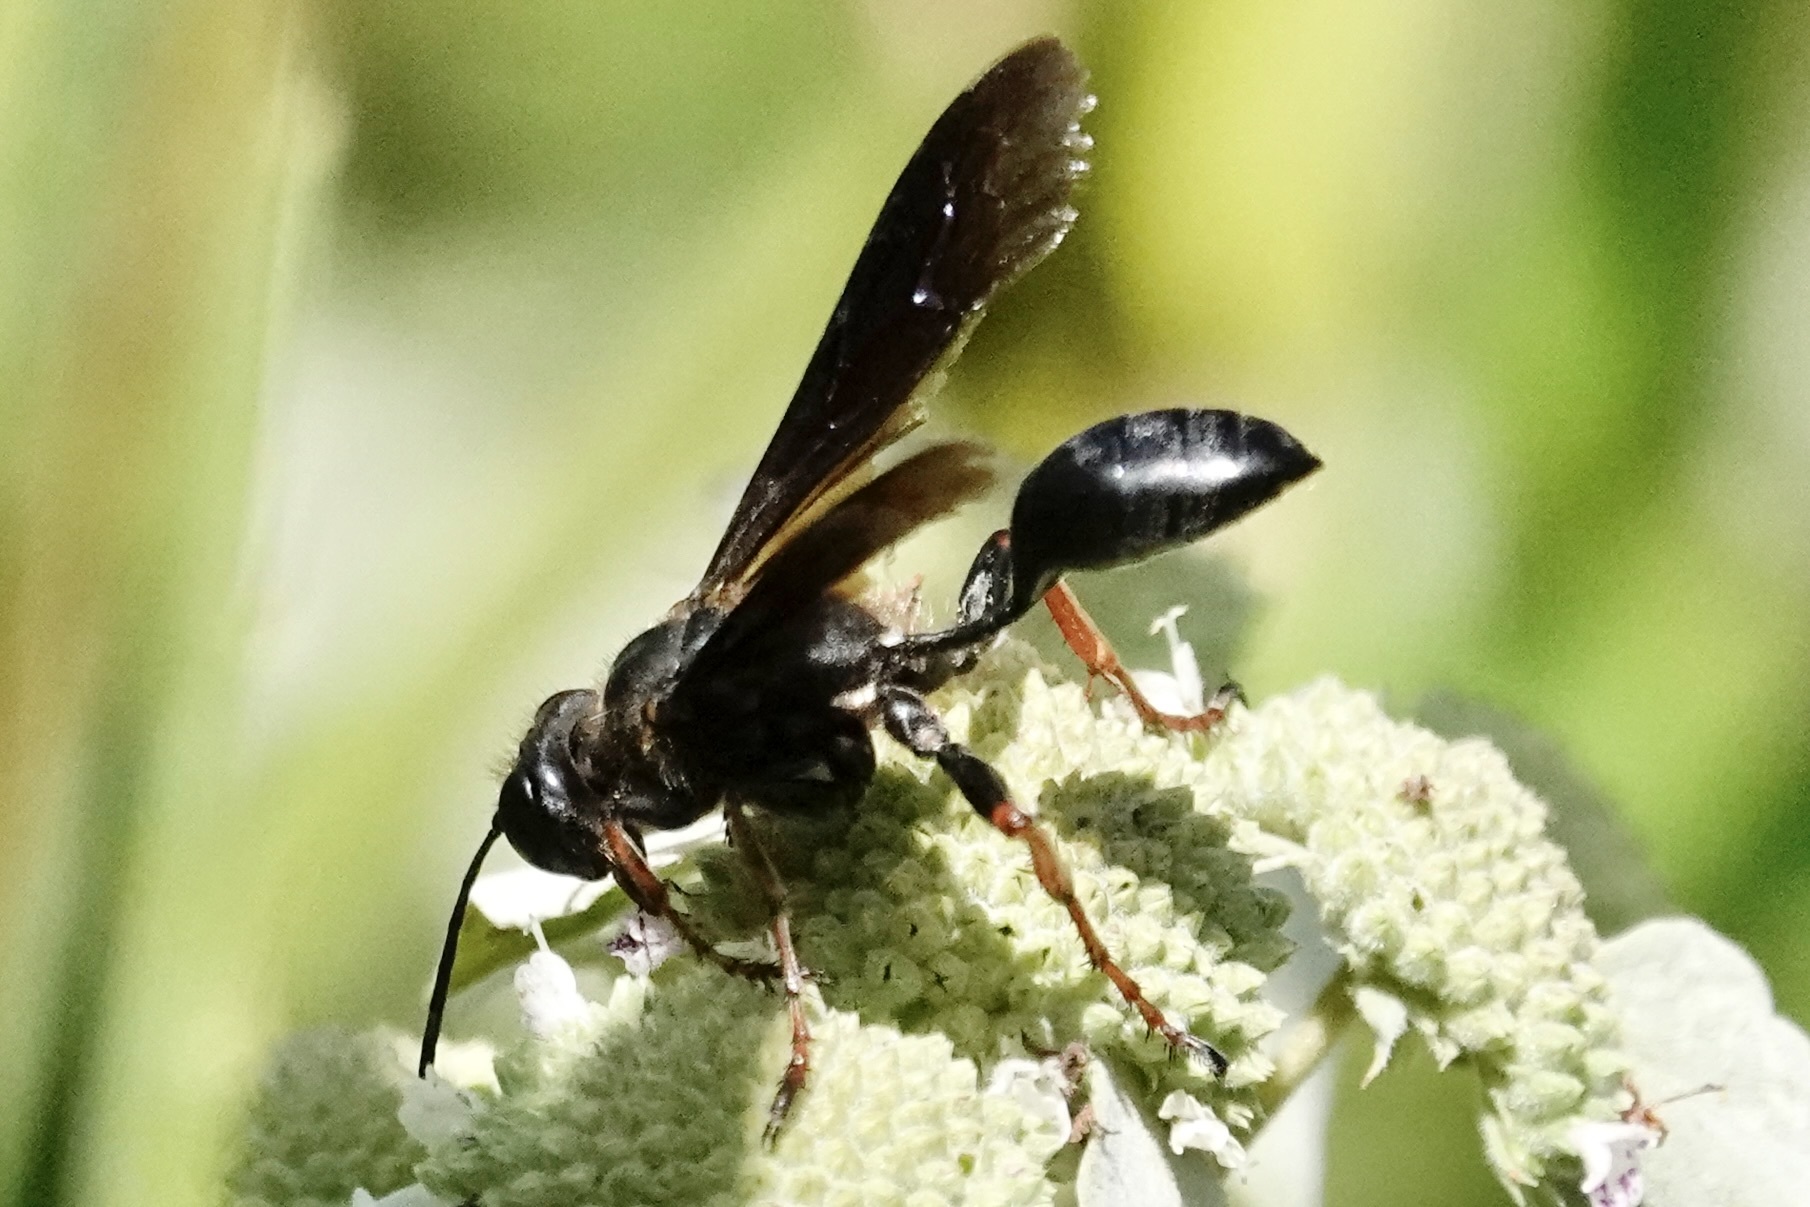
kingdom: Animalia
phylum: Arthropoda
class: Insecta
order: Hymenoptera
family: Sphecidae
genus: Isodontia
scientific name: Isodontia auripes
